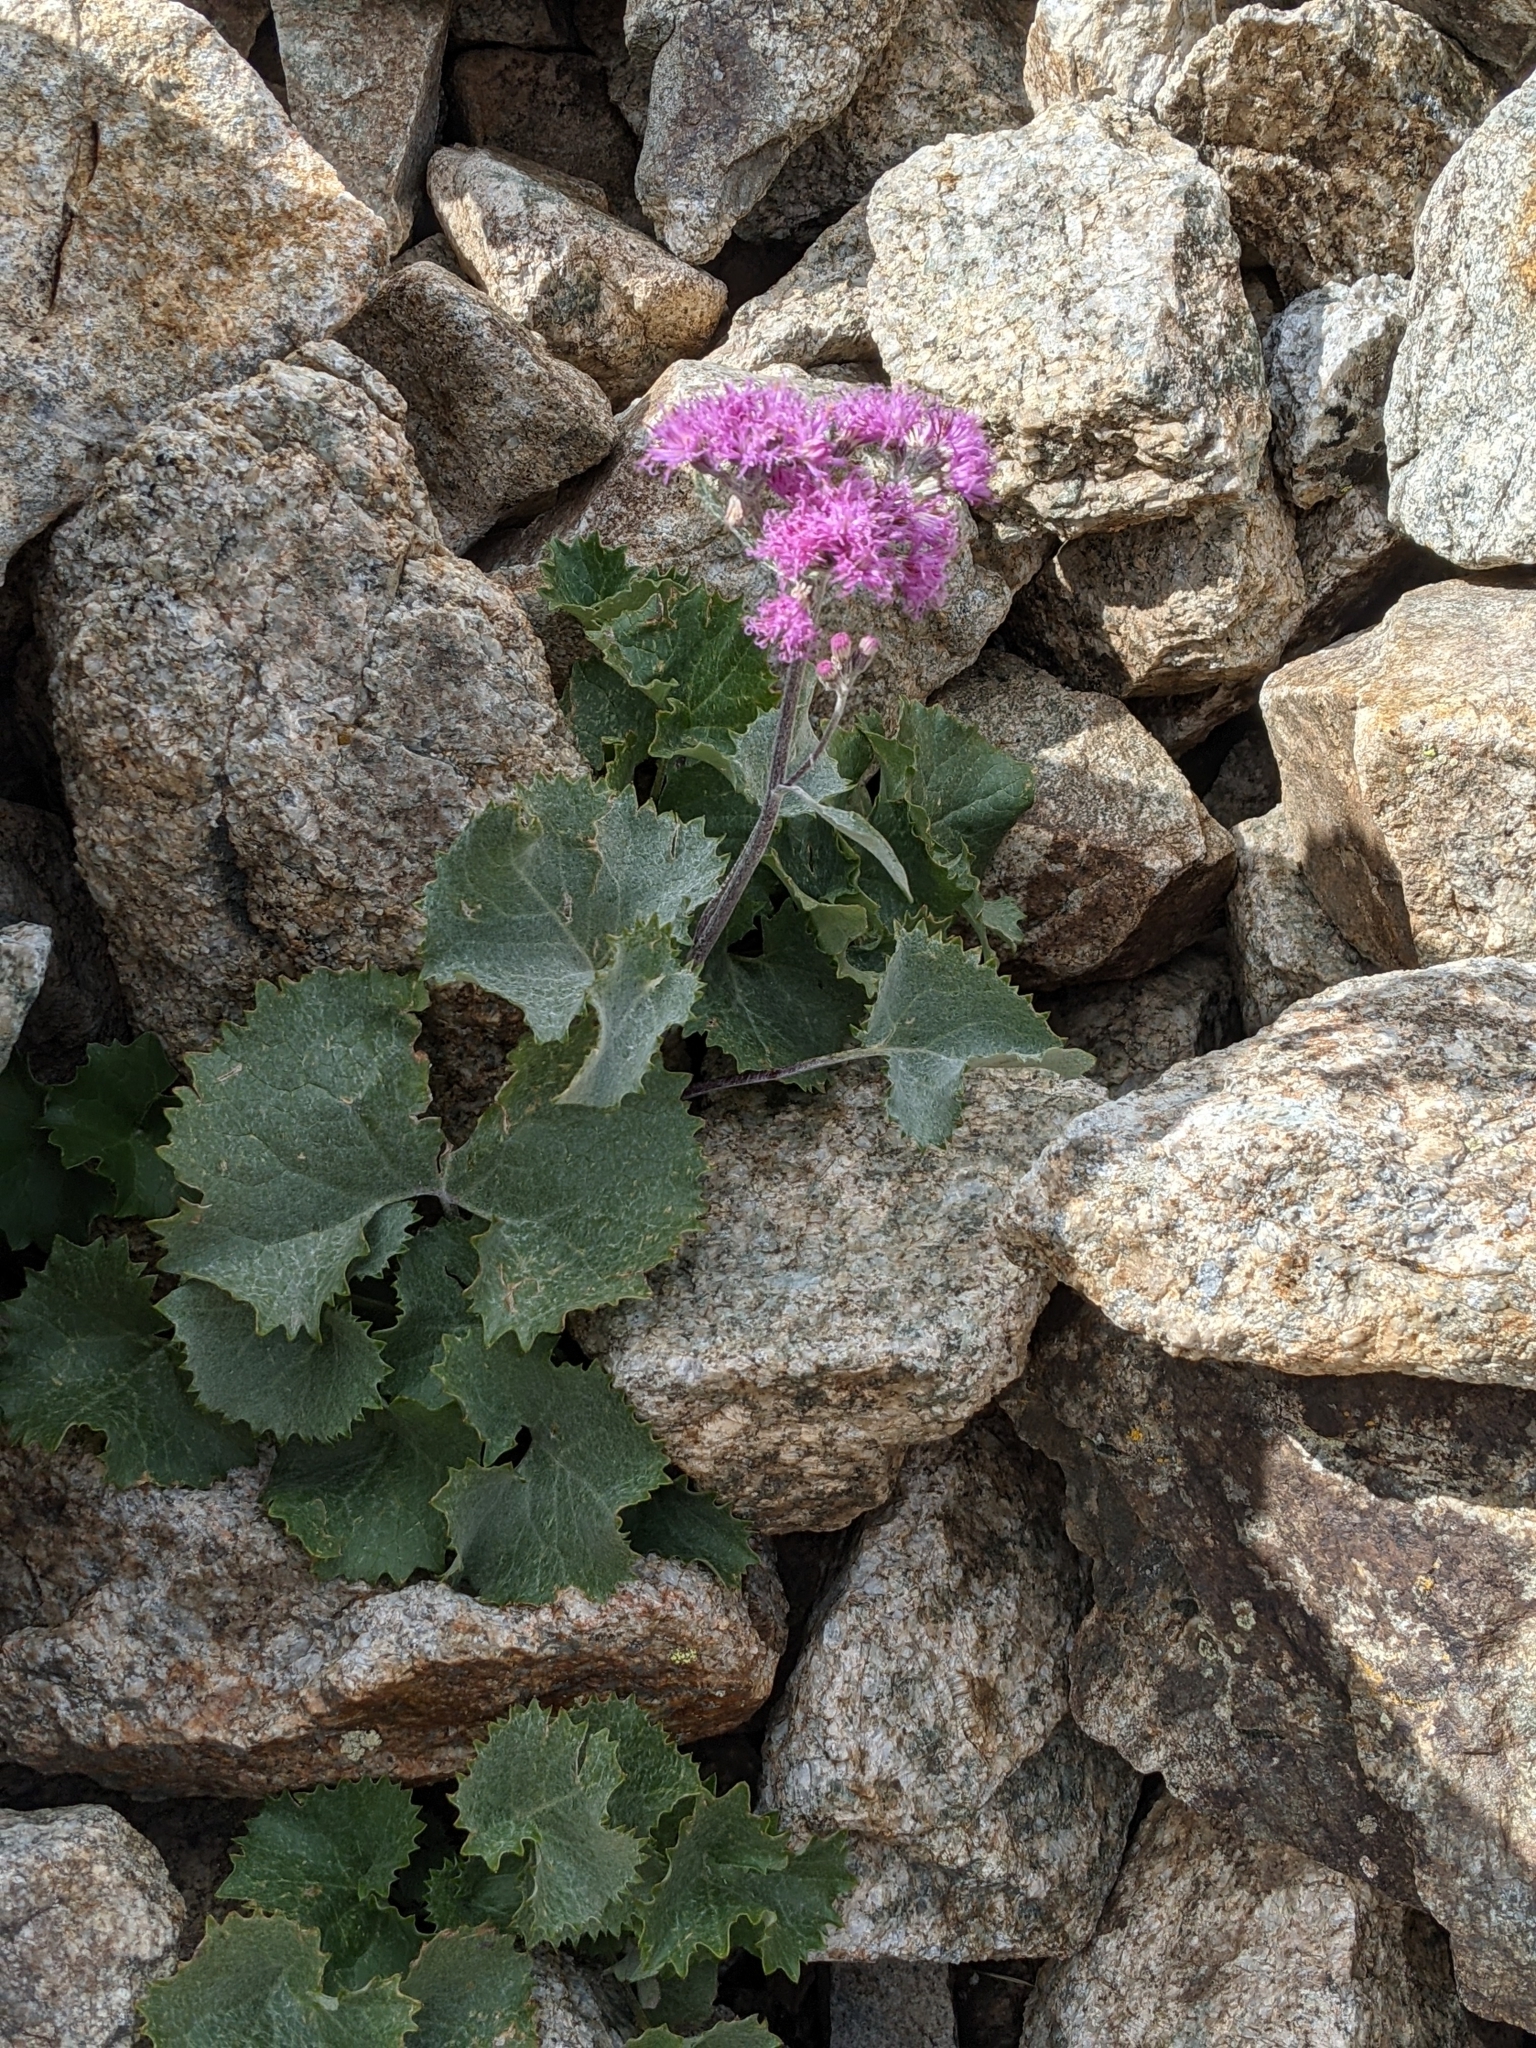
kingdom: Plantae
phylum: Tracheophyta
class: Magnoliopsida
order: Asterales
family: Asteraceae
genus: Adenostyles
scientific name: Adenostyles leucophylla
